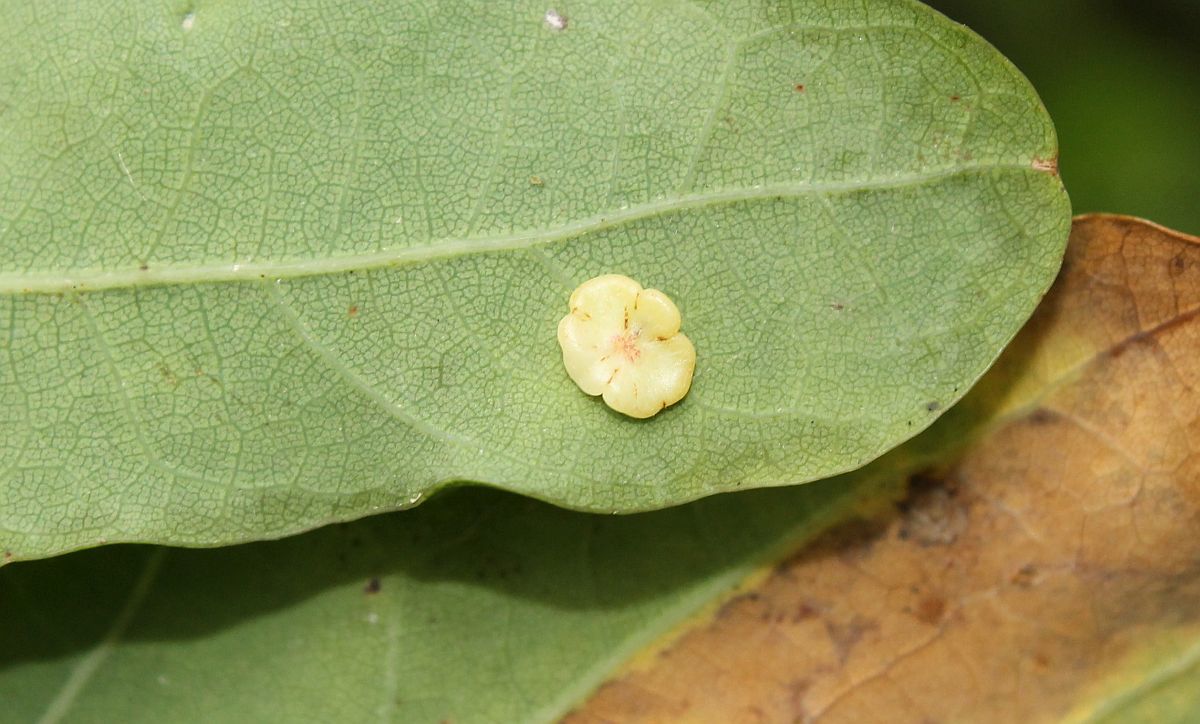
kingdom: Animalia
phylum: Arthropoda
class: Insecta
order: Hymenoptera
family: Cynipidae
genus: Neuroterus
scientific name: Neuroterus albipes
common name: Smooth spangle gall
